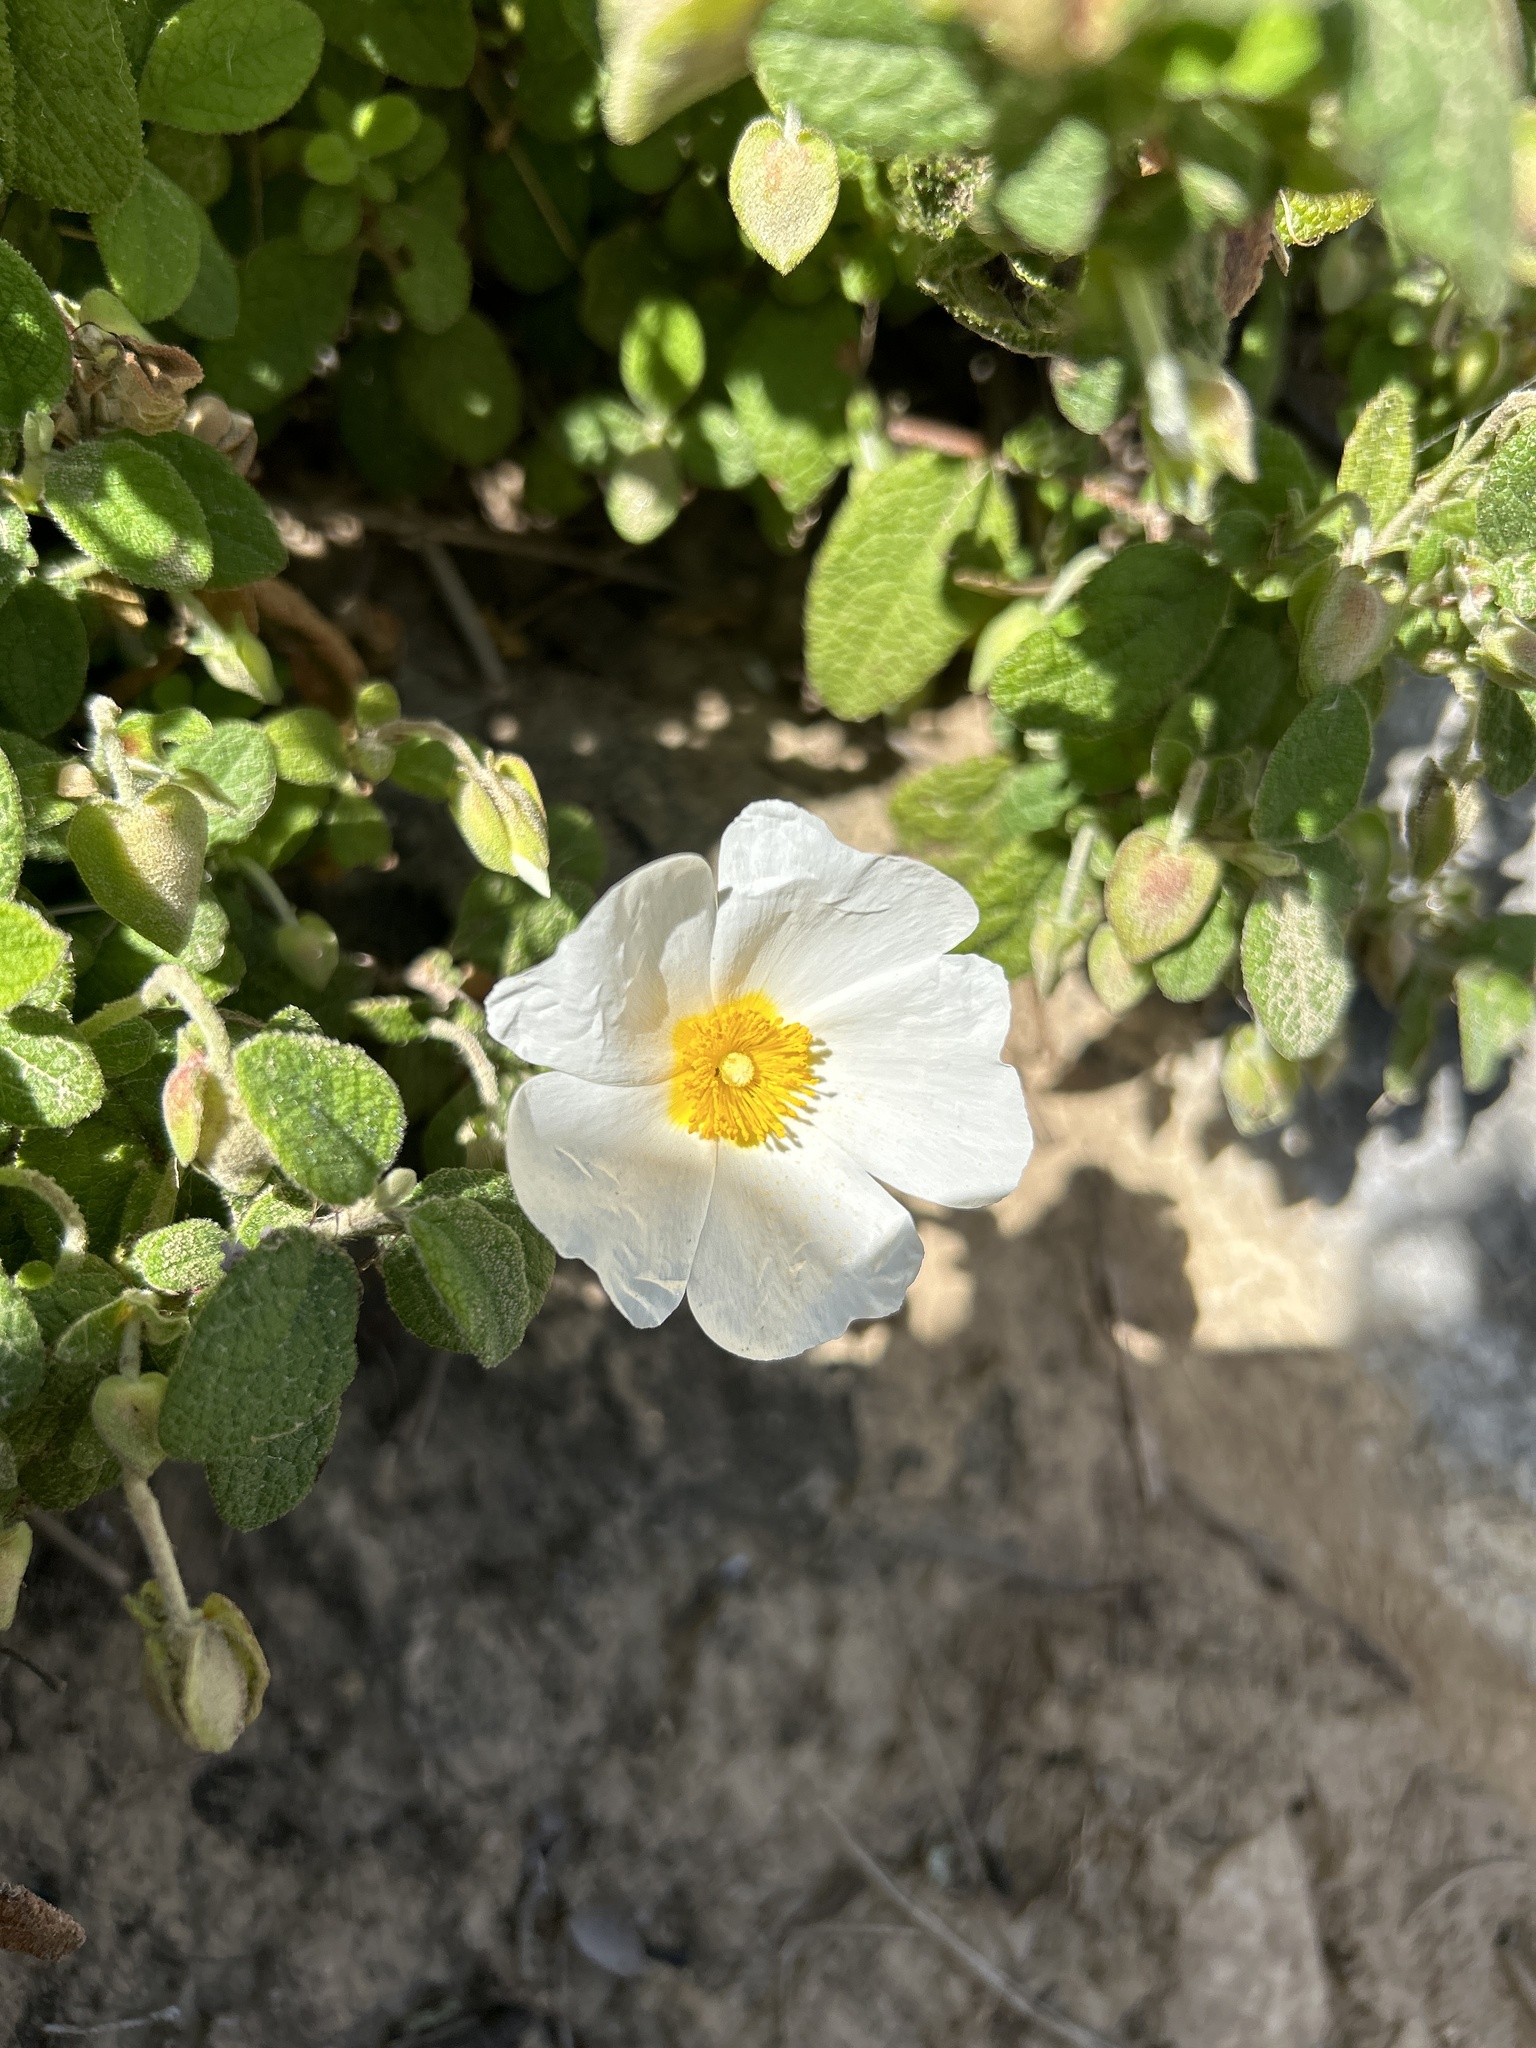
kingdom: Plantae
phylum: Tracheophyta
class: Magnoliopsida
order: Malvales
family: Cistaceae
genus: Cistus
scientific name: Cistus salviifolius
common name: Salvia cistus
